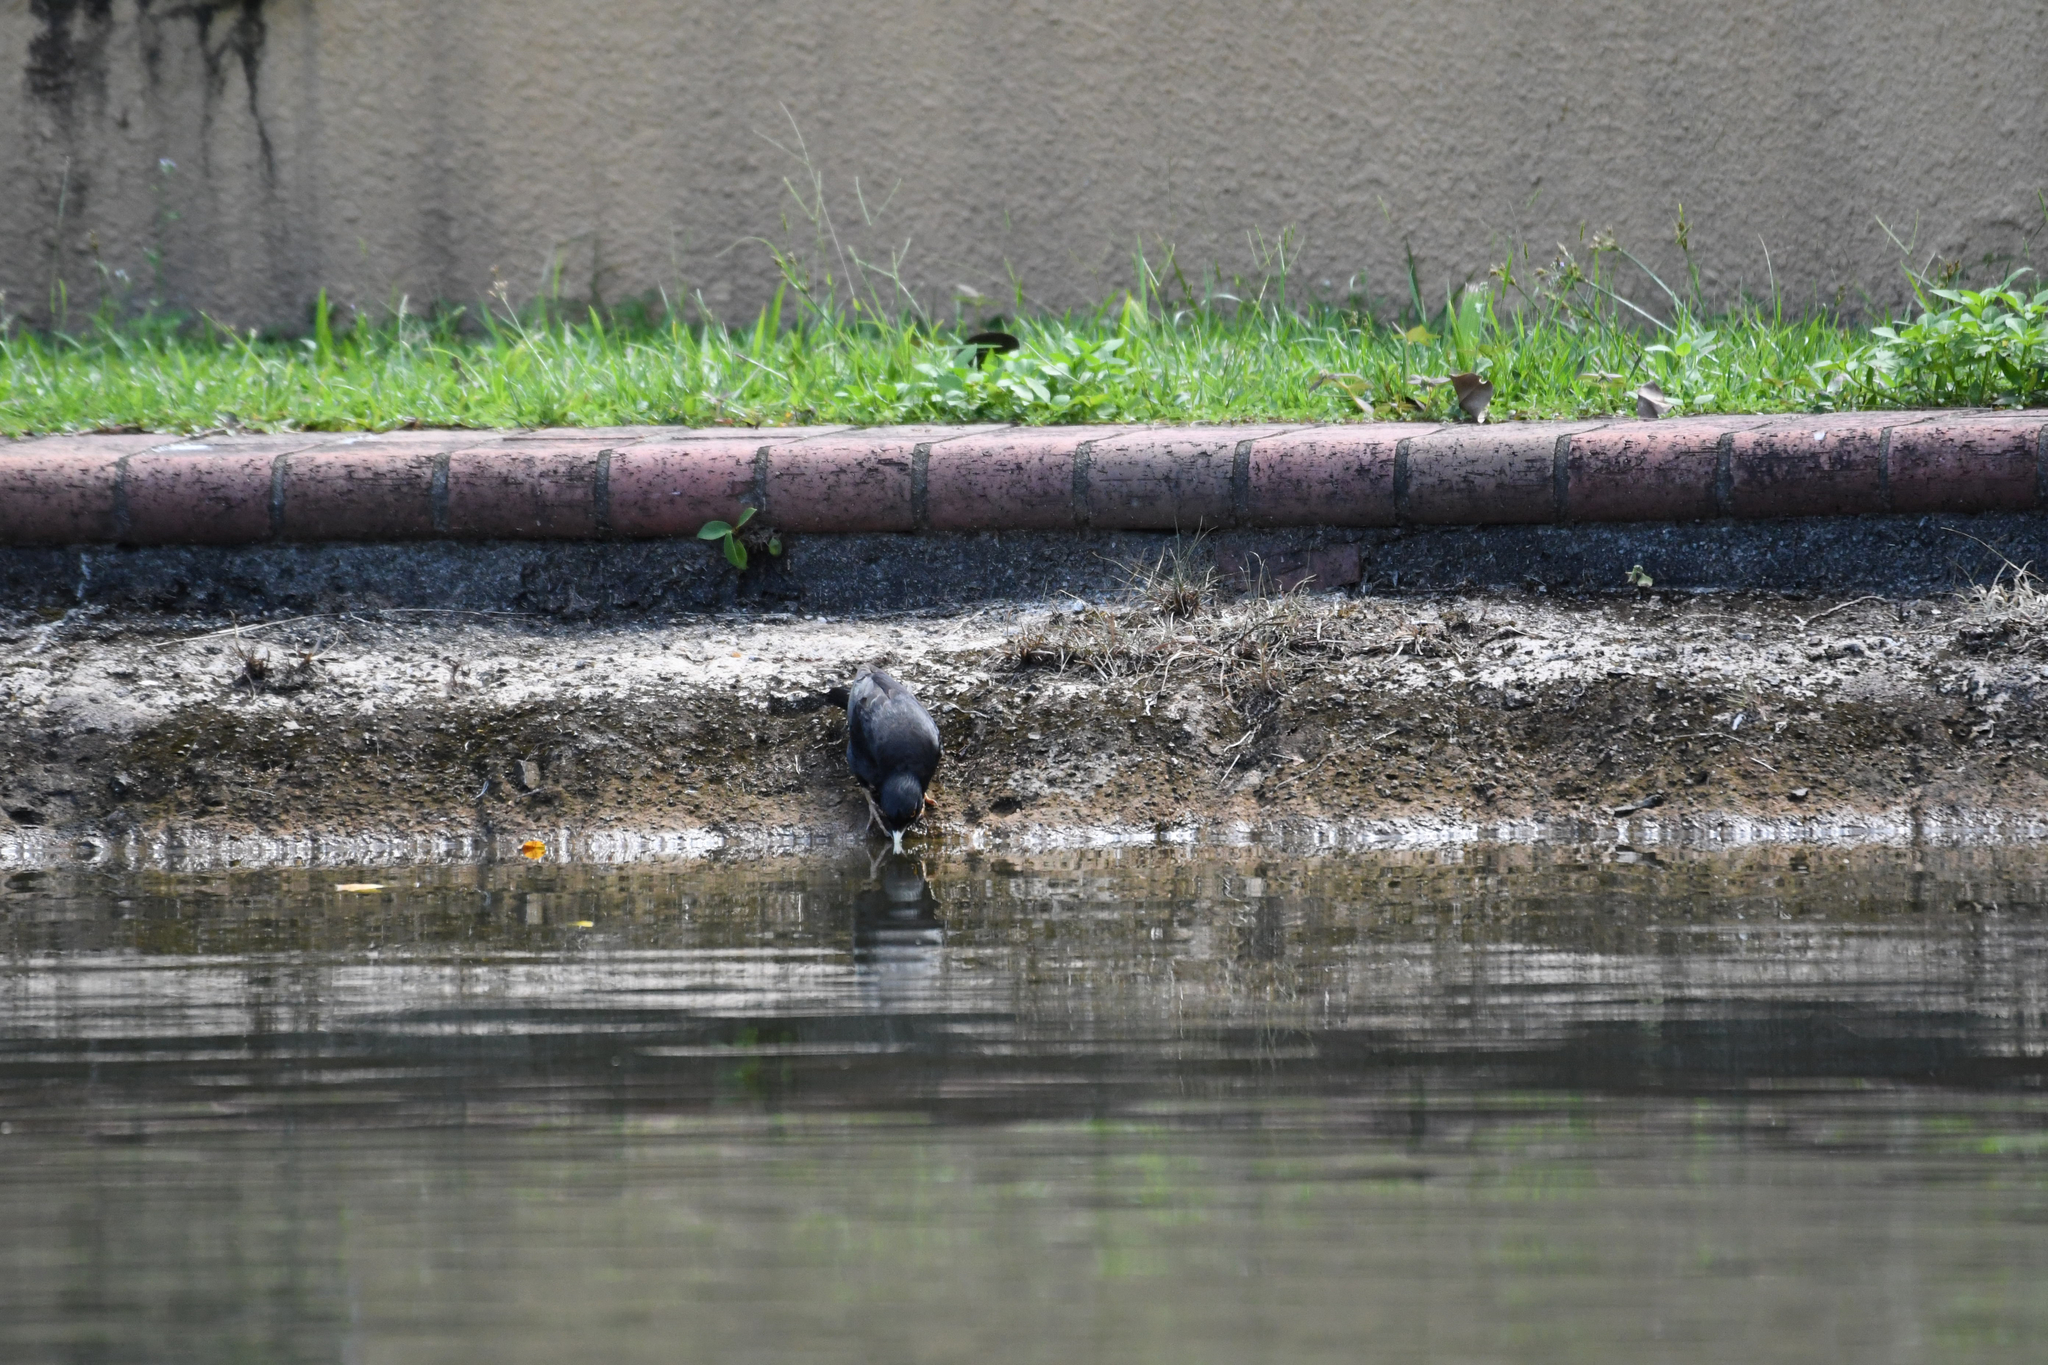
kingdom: Animalia
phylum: Chordata
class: Aves
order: Passeriformes
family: Sturnidae
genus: Acridotheres
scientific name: Acridotheres cristatellus
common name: Crested myna
